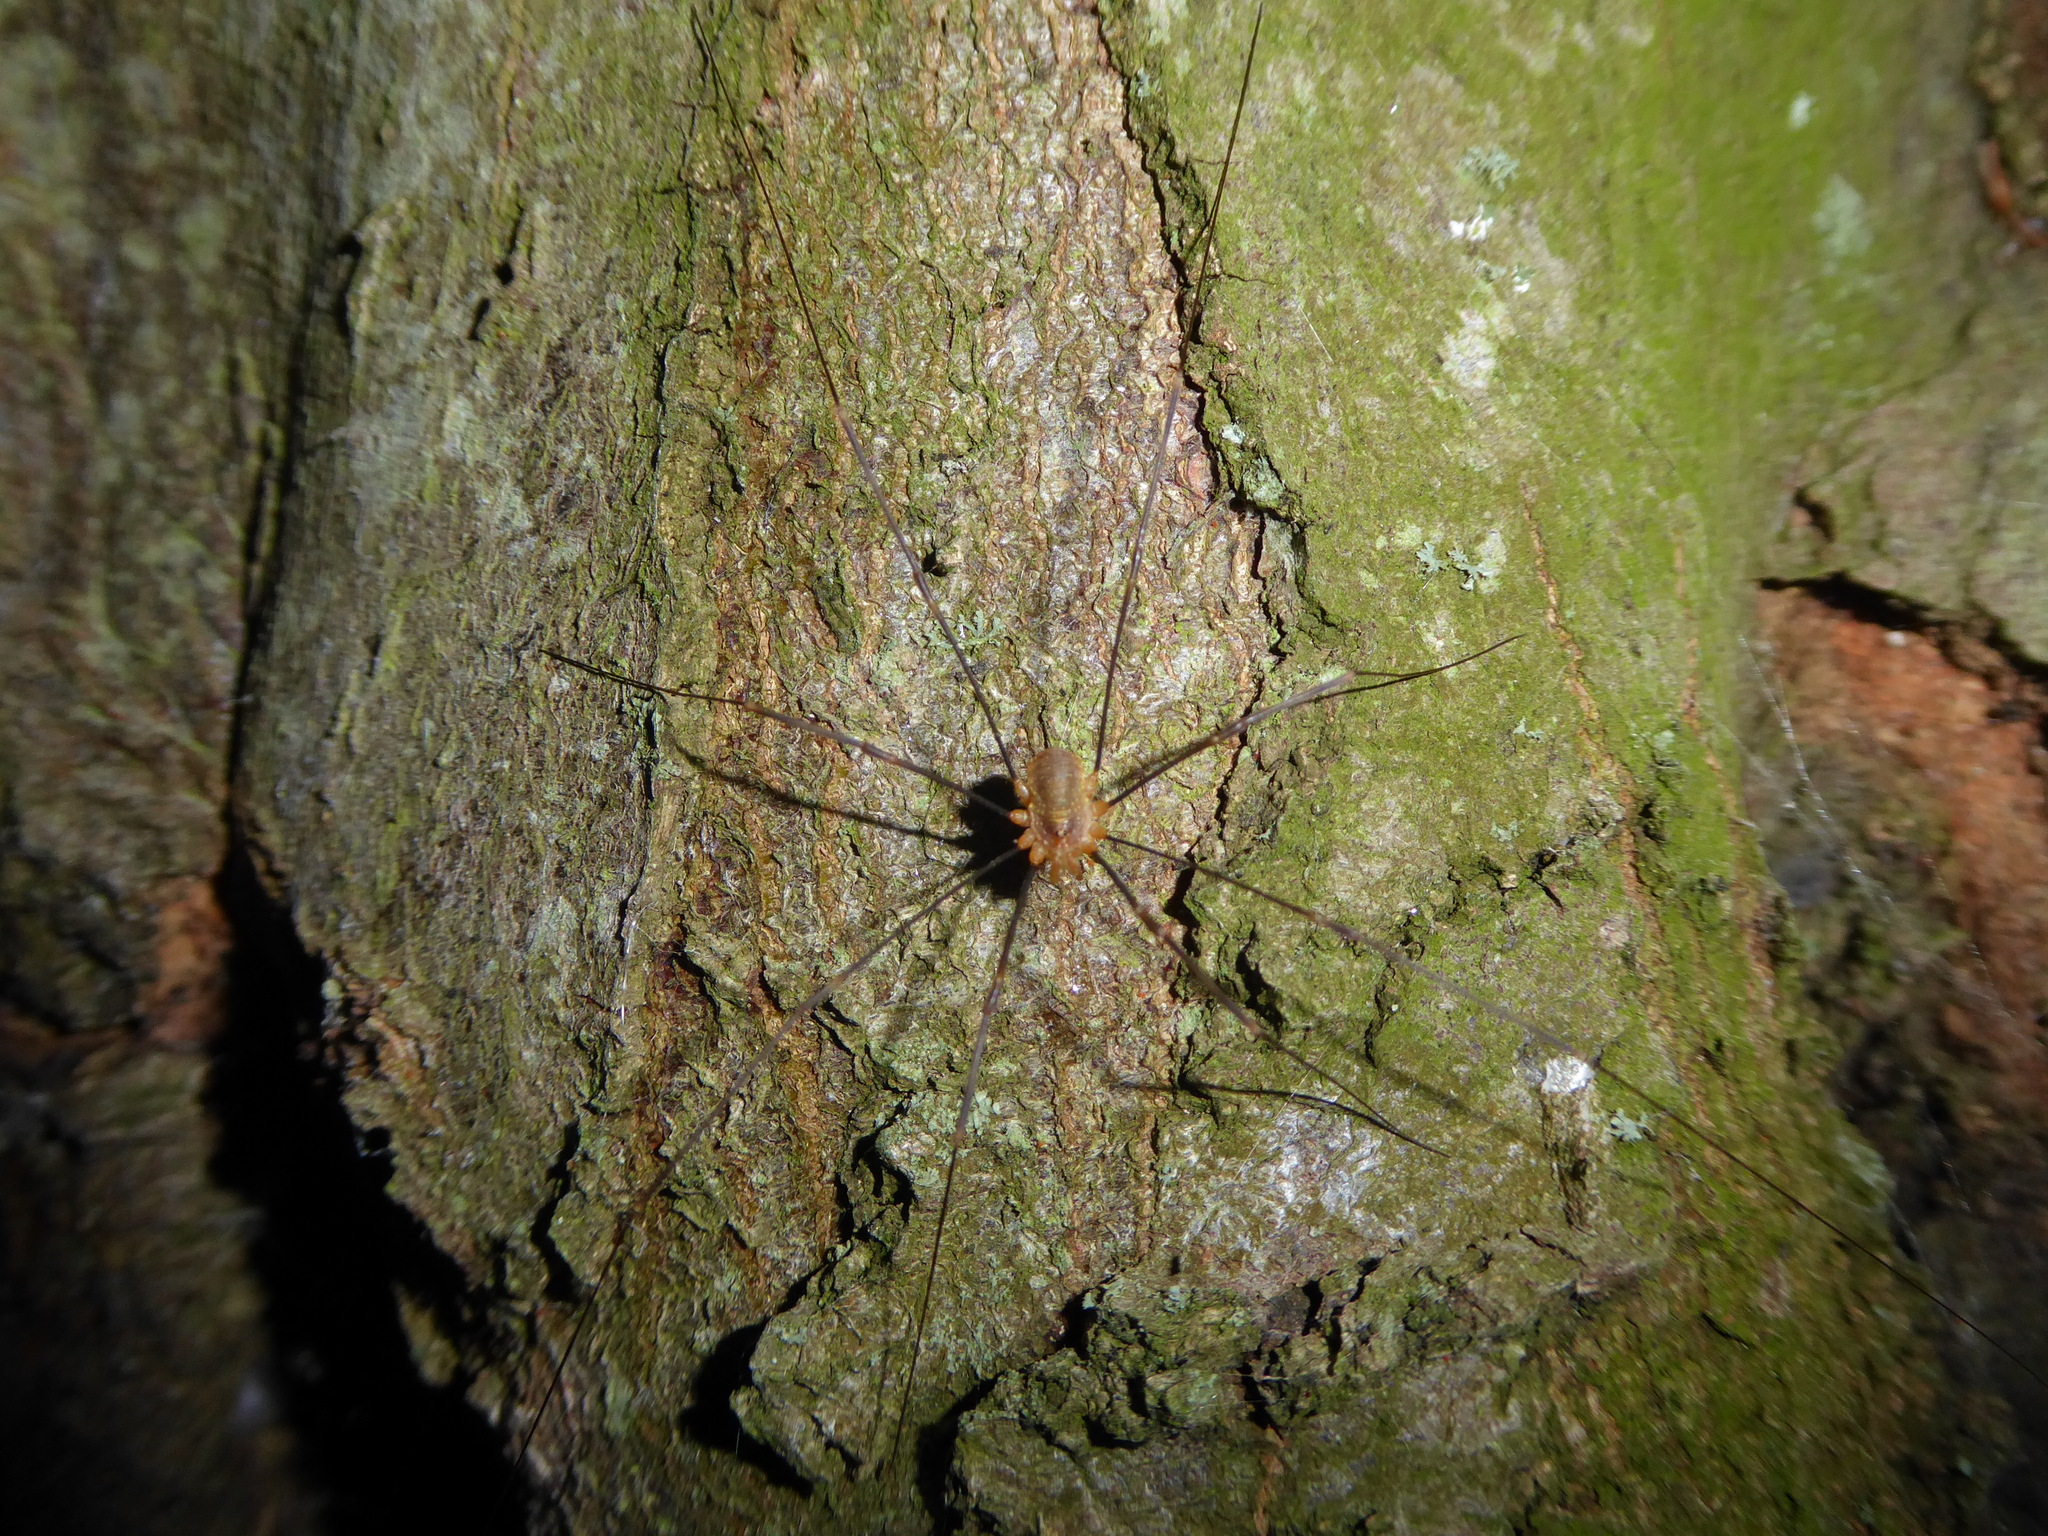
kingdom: Animalia
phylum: Arthropoda
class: Arachnida
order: Opiliones
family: Phalangiidae
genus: Opilio
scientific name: Opilio canestrinii
